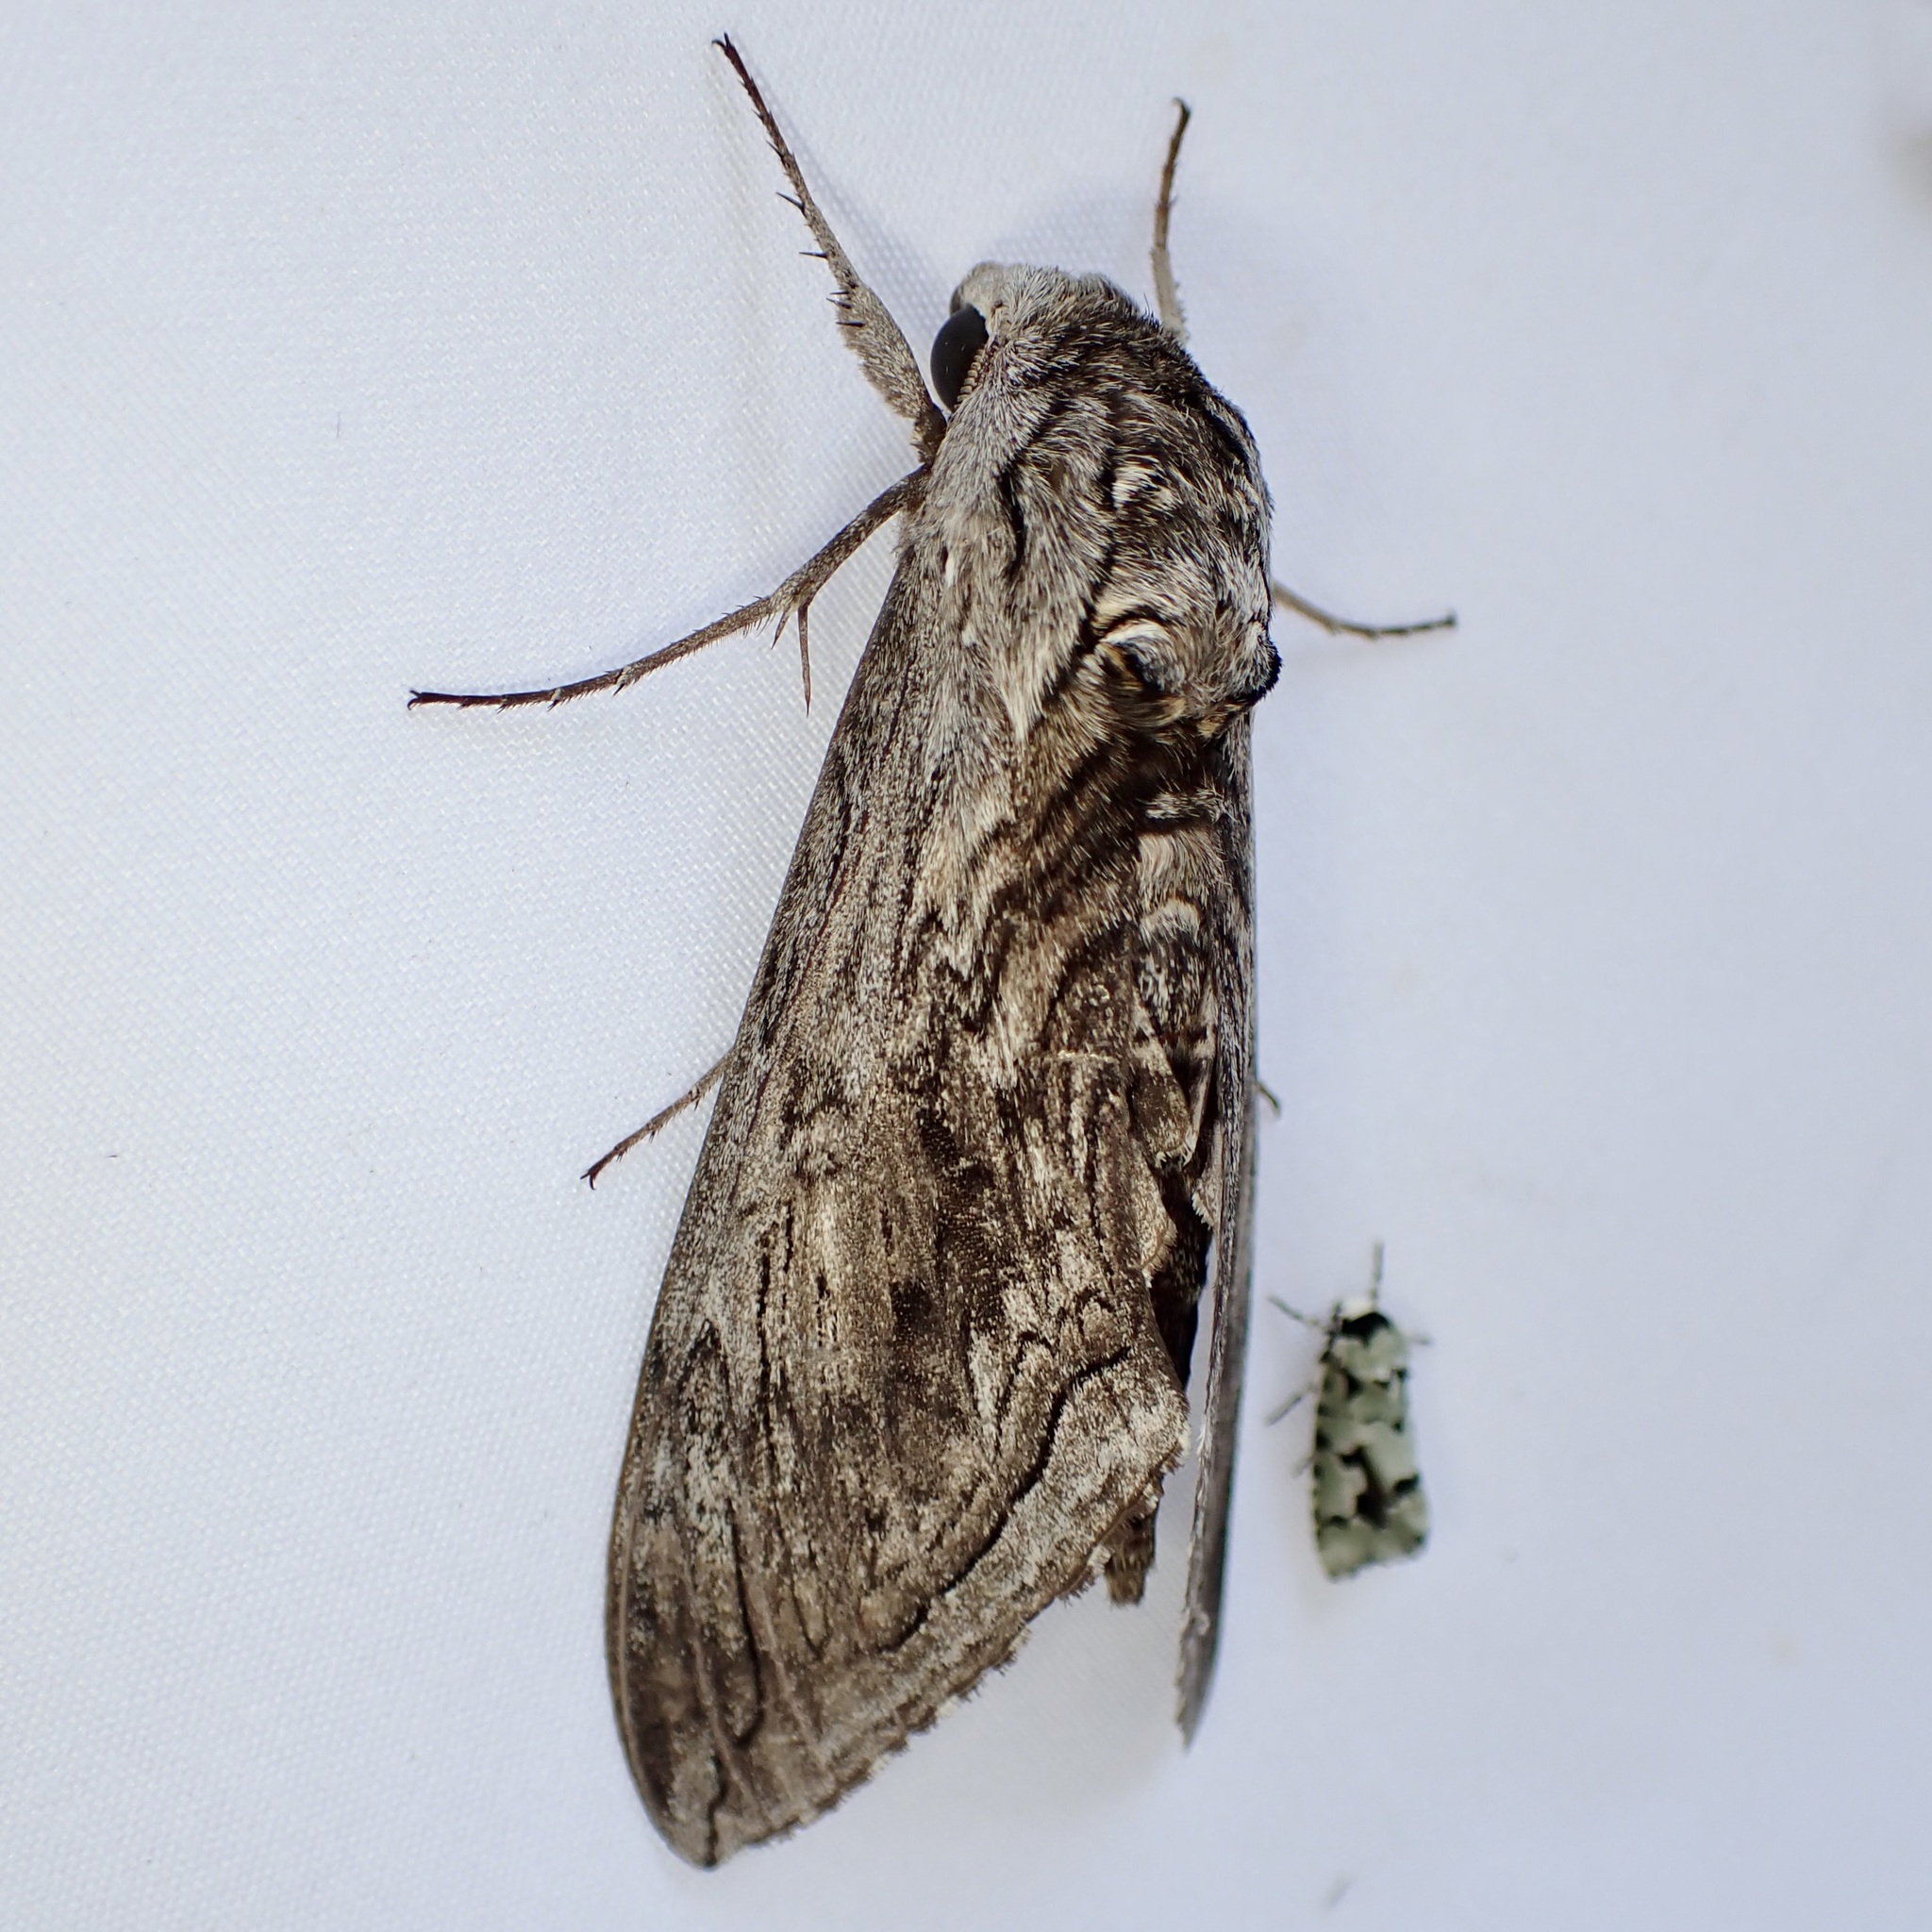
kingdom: Animalia
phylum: Arthropoda
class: Insecta
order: Lepidoptera
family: Sphingidae
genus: Manduca
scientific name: Manduca quinquemaculatus
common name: Five-spotted hawk-moth
